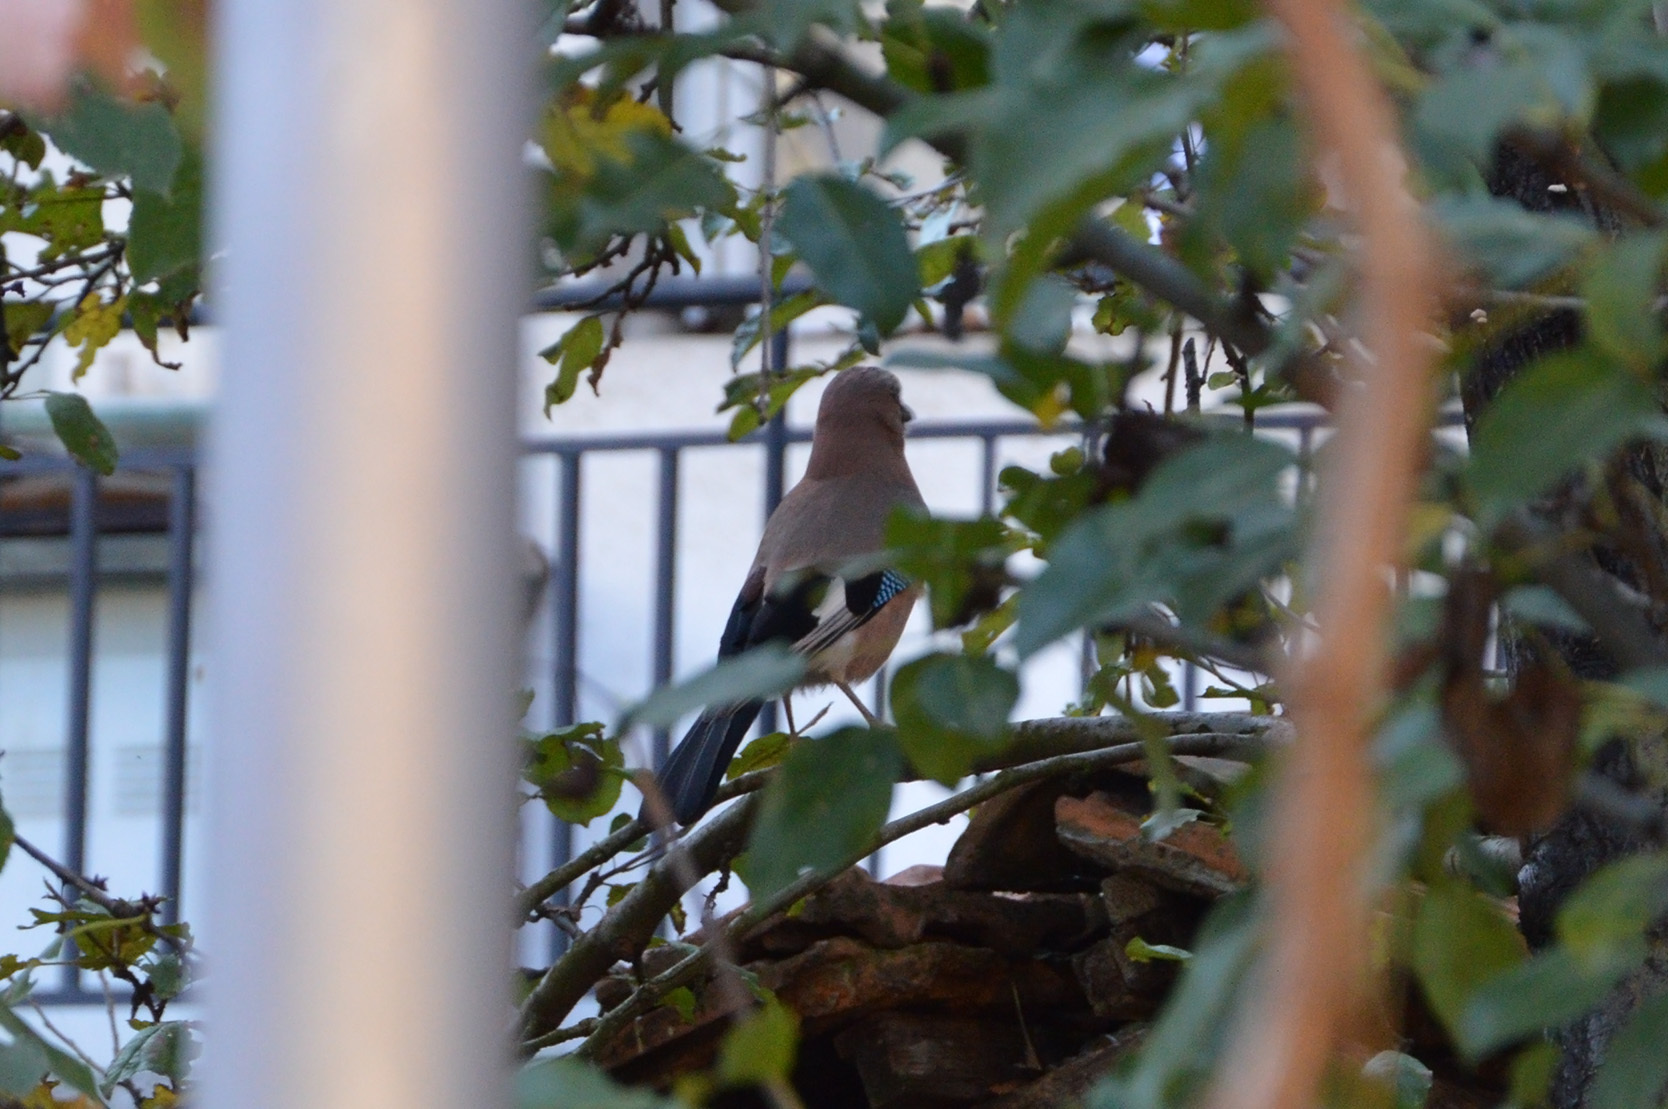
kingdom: Animalia
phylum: Chordata
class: Aves
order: Passeriformes
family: Corvidae
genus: Garrulus
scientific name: Garrulus glandarius
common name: Eurasian jay
